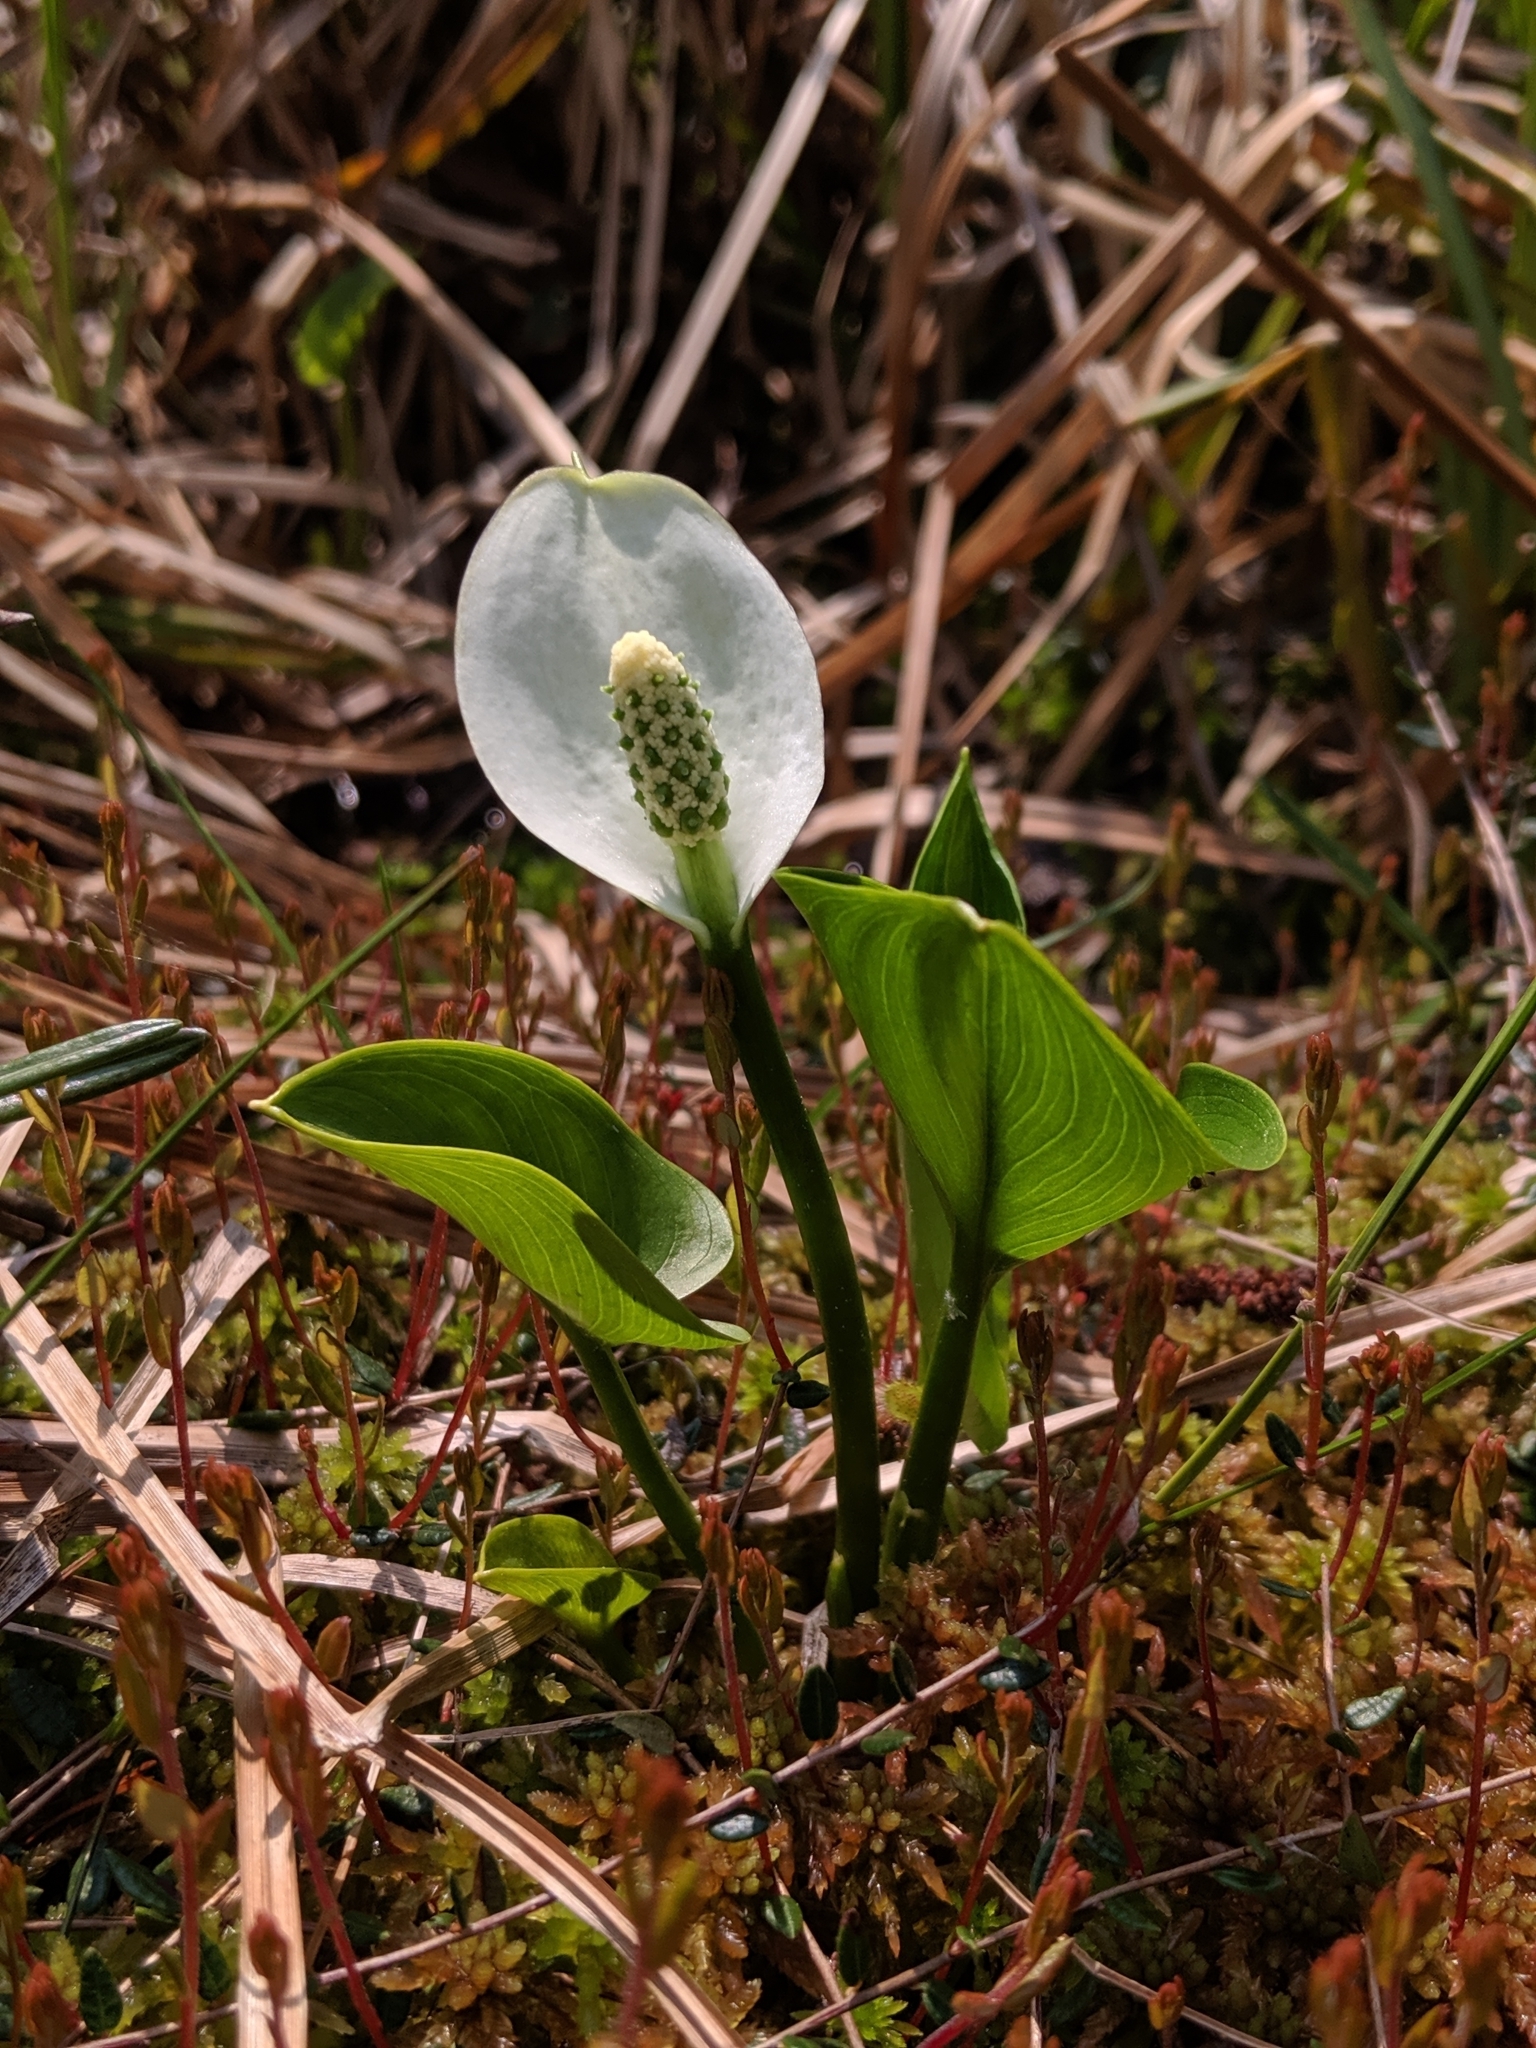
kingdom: Plantae
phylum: Tracheophyta
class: Liliopsida
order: Alismatales
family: Araceae
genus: Calla
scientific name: Calla palustris
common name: Bog arum
